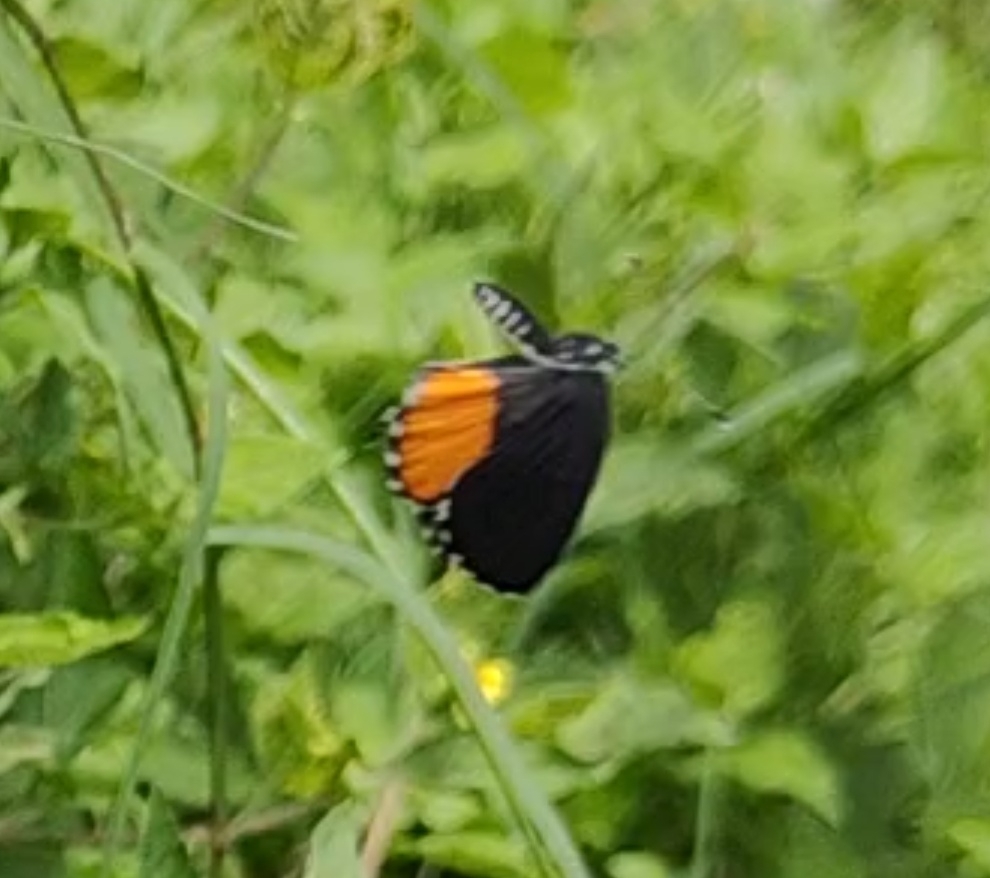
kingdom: Animalia
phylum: Arthropoda
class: Insecta
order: Lepidoptera
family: Lycaenidae
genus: Talicada
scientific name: Talicada nyseus
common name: Red pierrot
